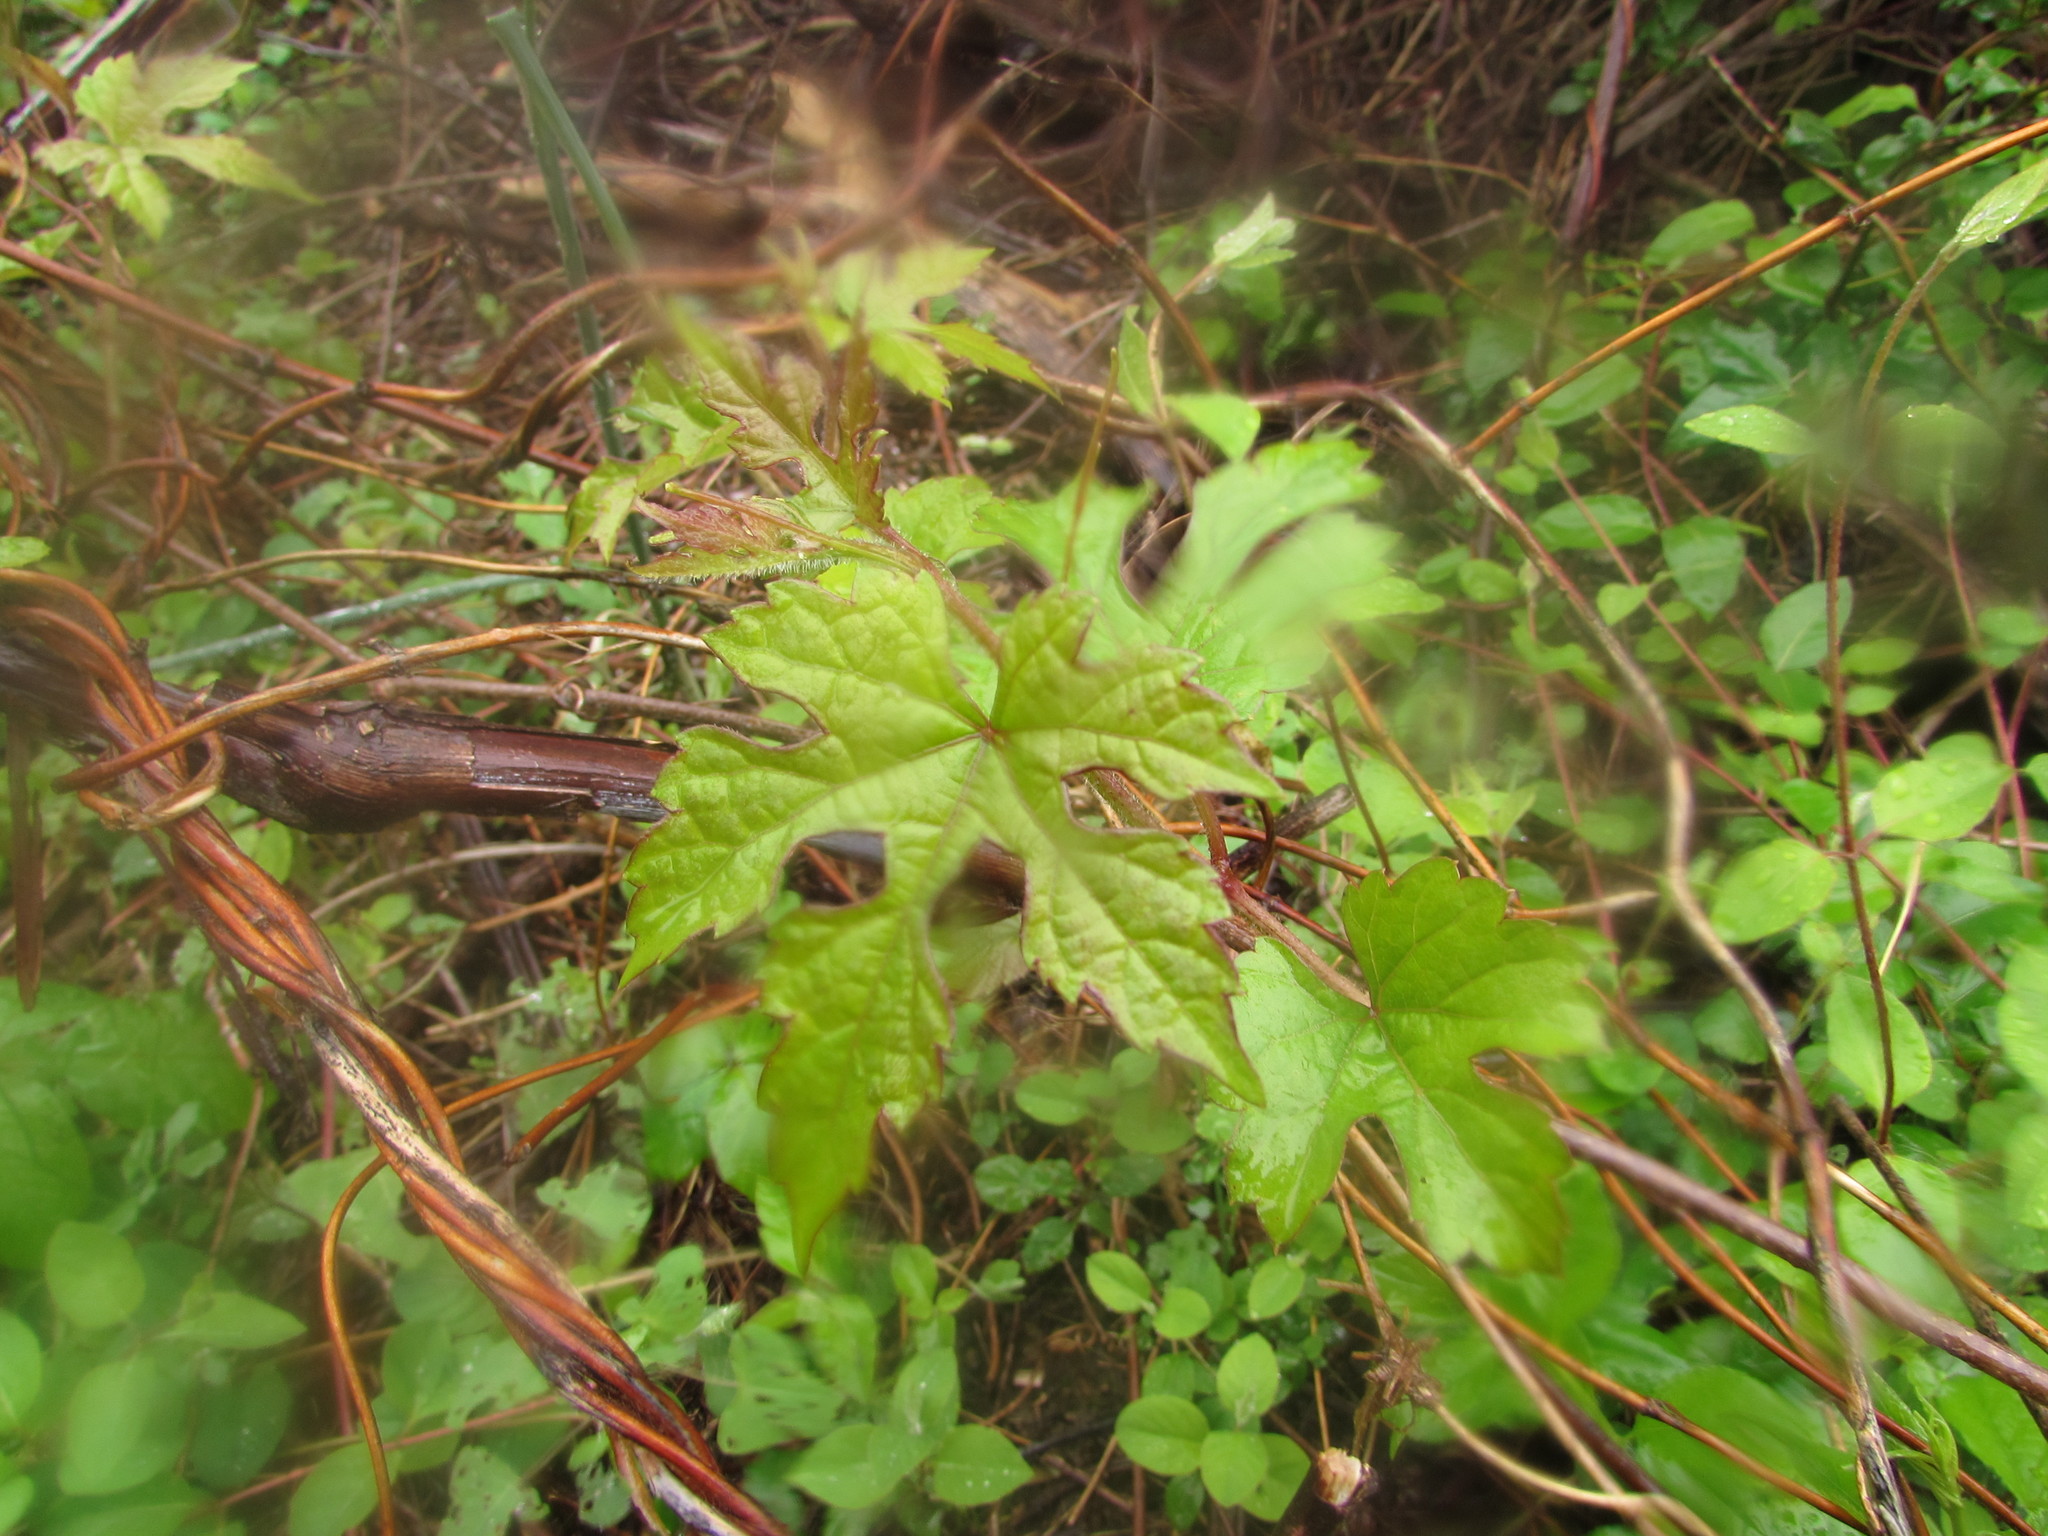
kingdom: Plantae
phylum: Tracheophyta
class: Magnoliopsida
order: Vitales
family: Vitaceae
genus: Ampelopsis
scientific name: Ampelopsis glandulosa
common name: Amur peppervine
